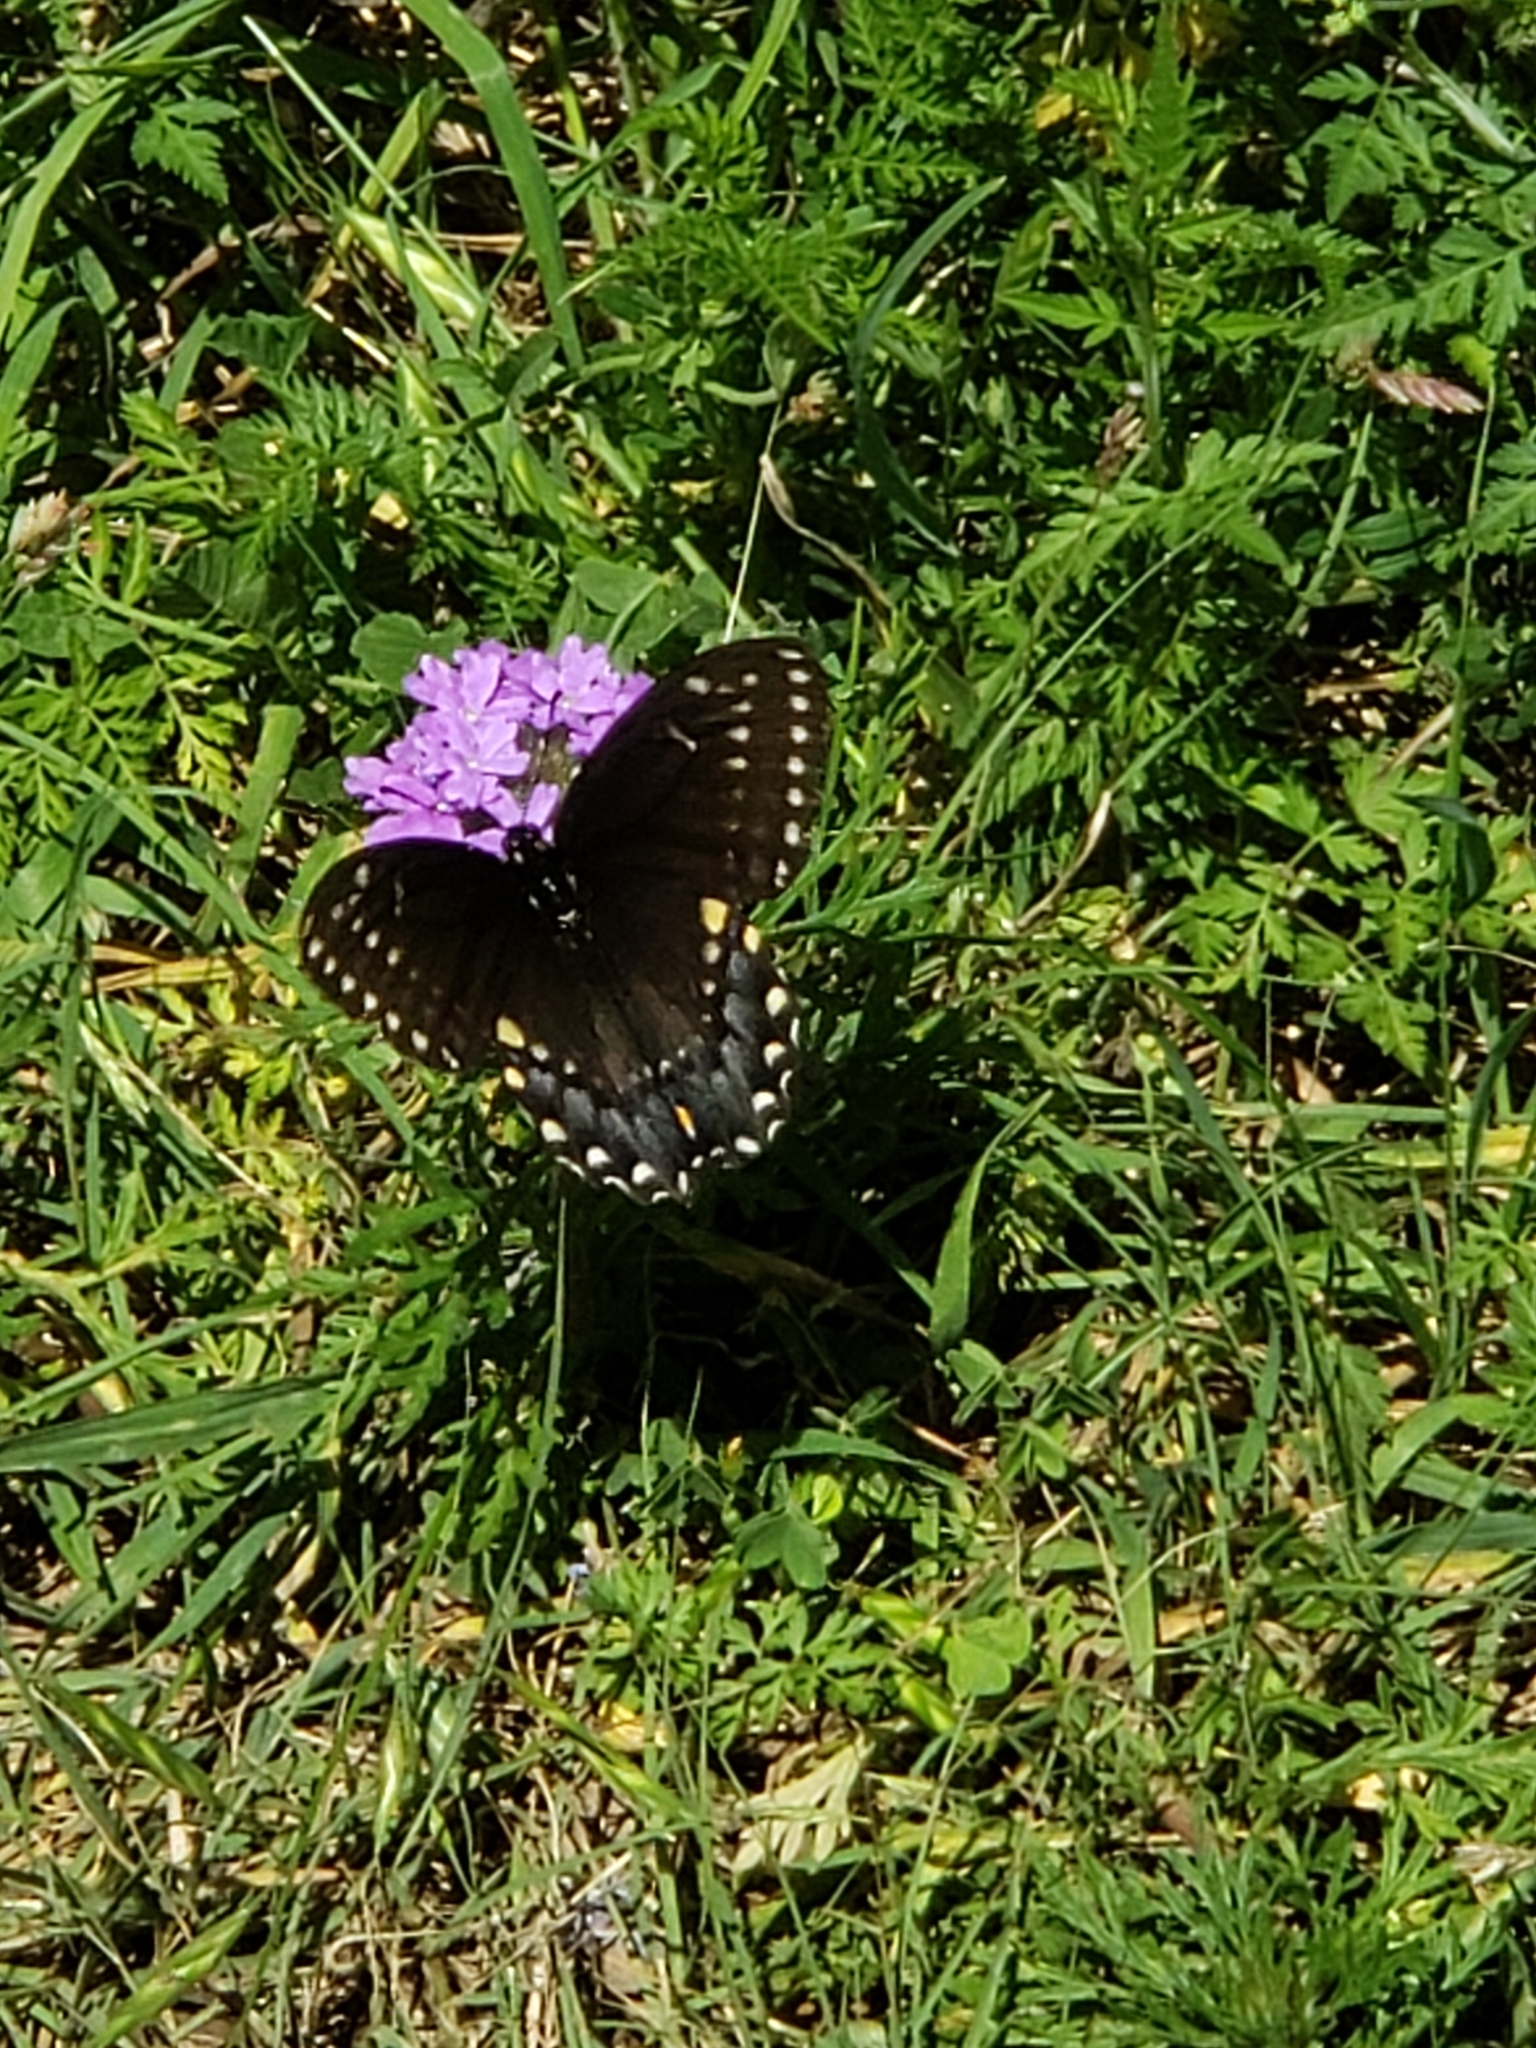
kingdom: Animalia
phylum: Arthropoda
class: Insecta
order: Lepidoptera
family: Papilionidae
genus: Papilio
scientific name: Papilio polyxenes
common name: Black swallowtail
